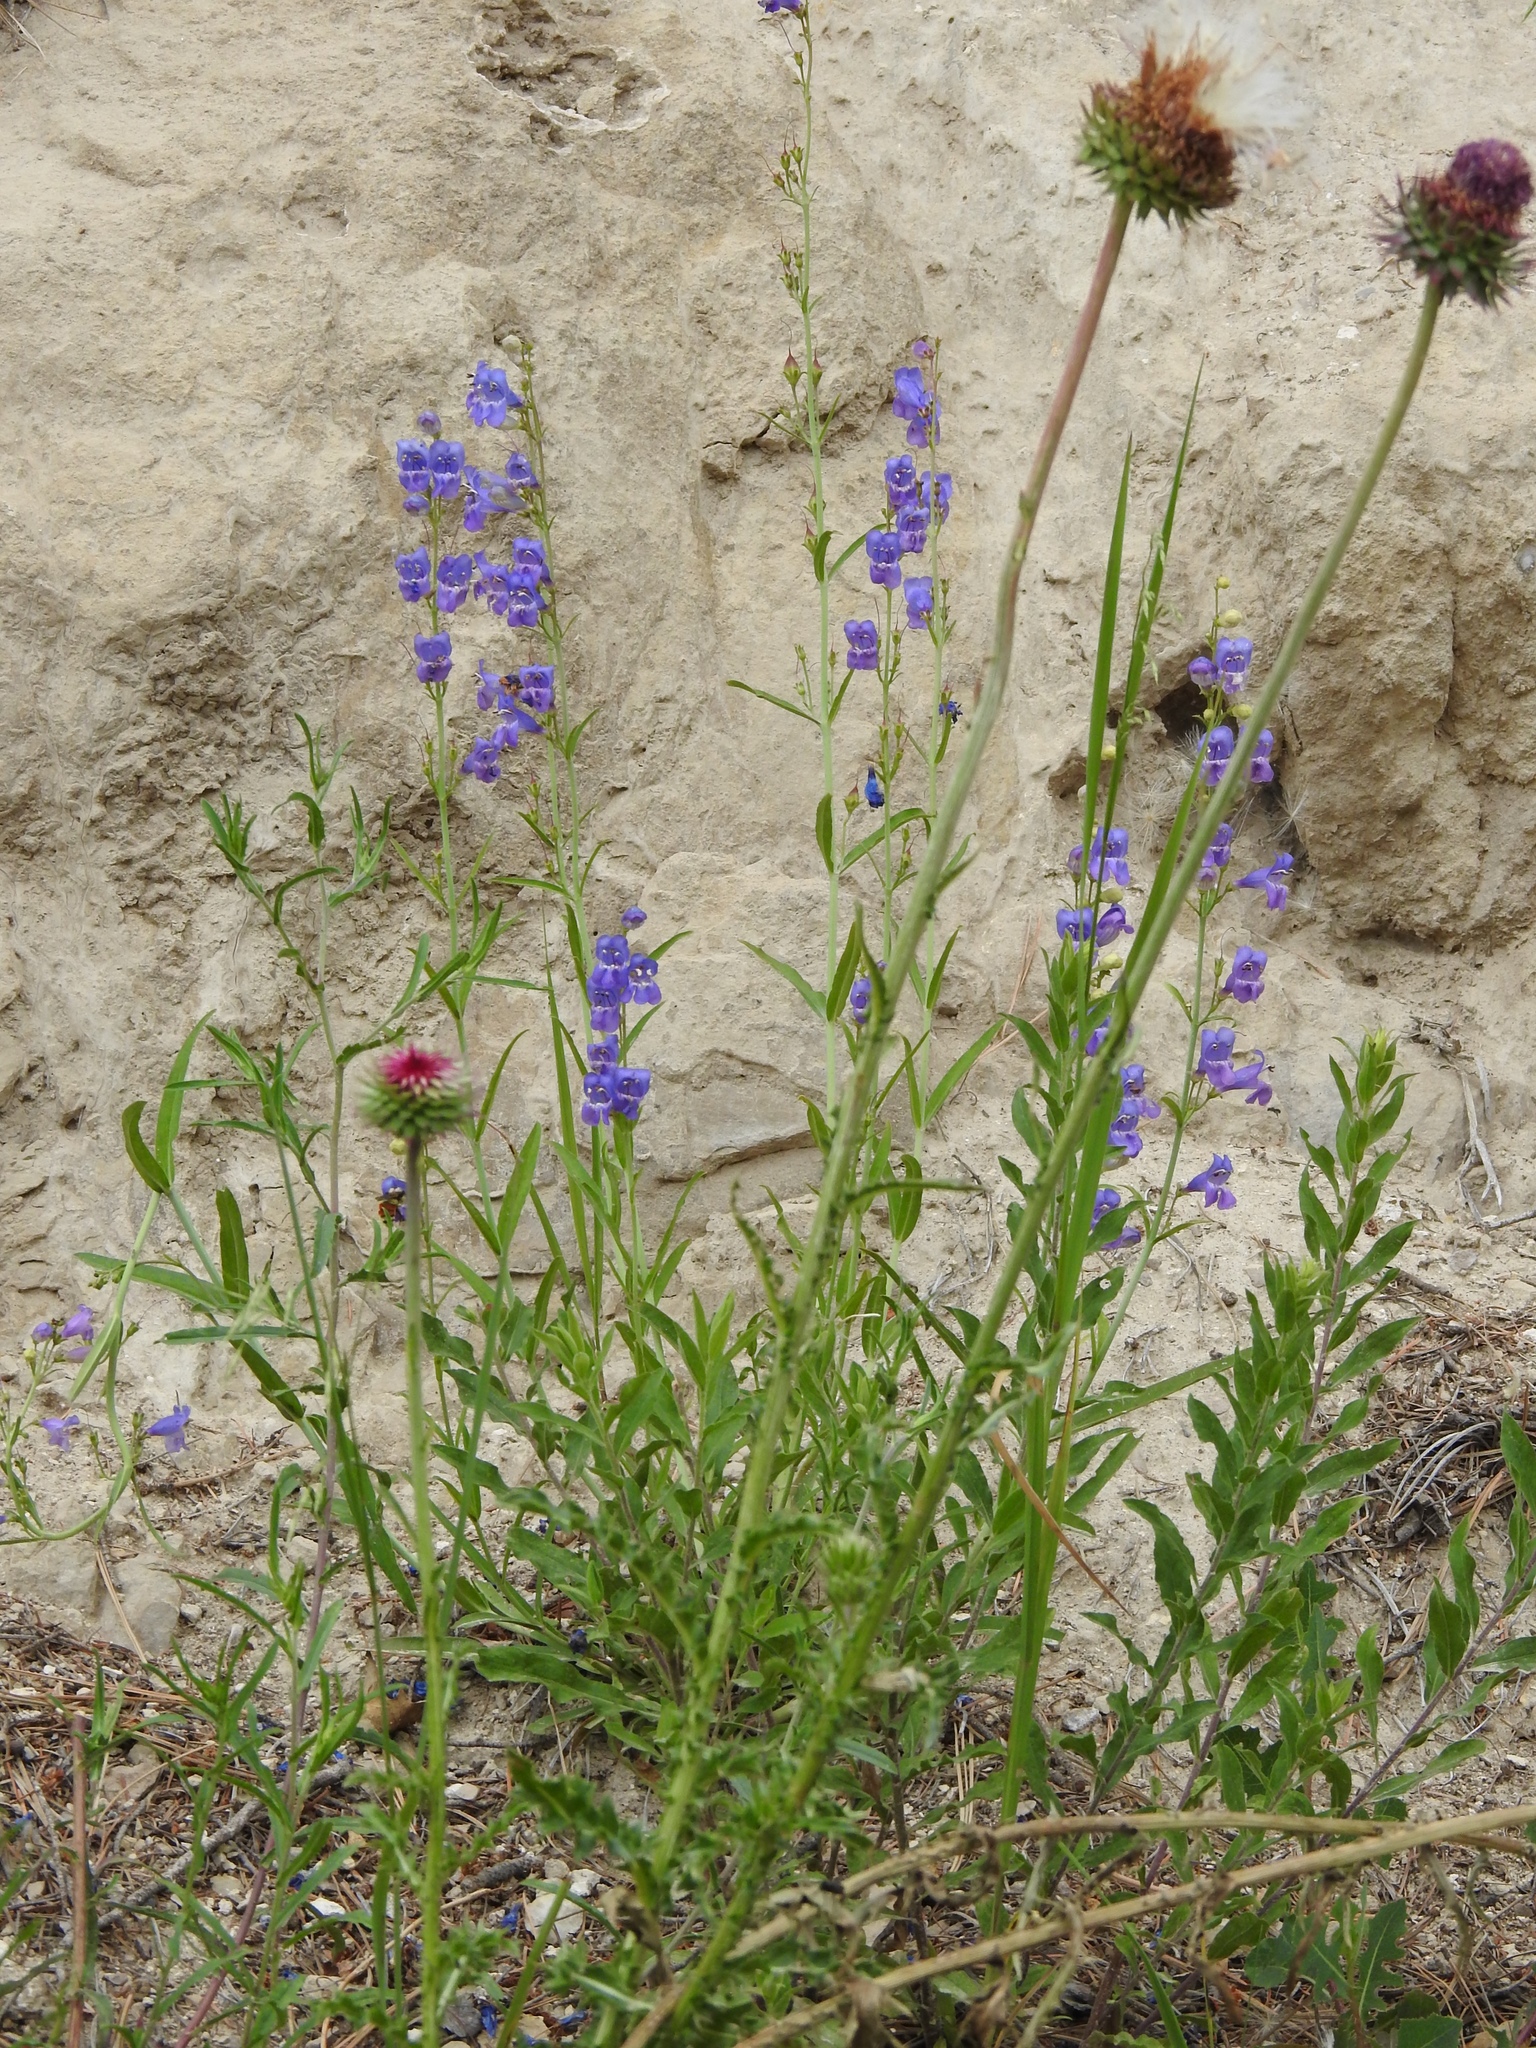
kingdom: Plantae
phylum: Tracheophyta
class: Magnoliopsida
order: Lamiales
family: Plantaginaceae
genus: Penstemon
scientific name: Penstemon neomexicanus
